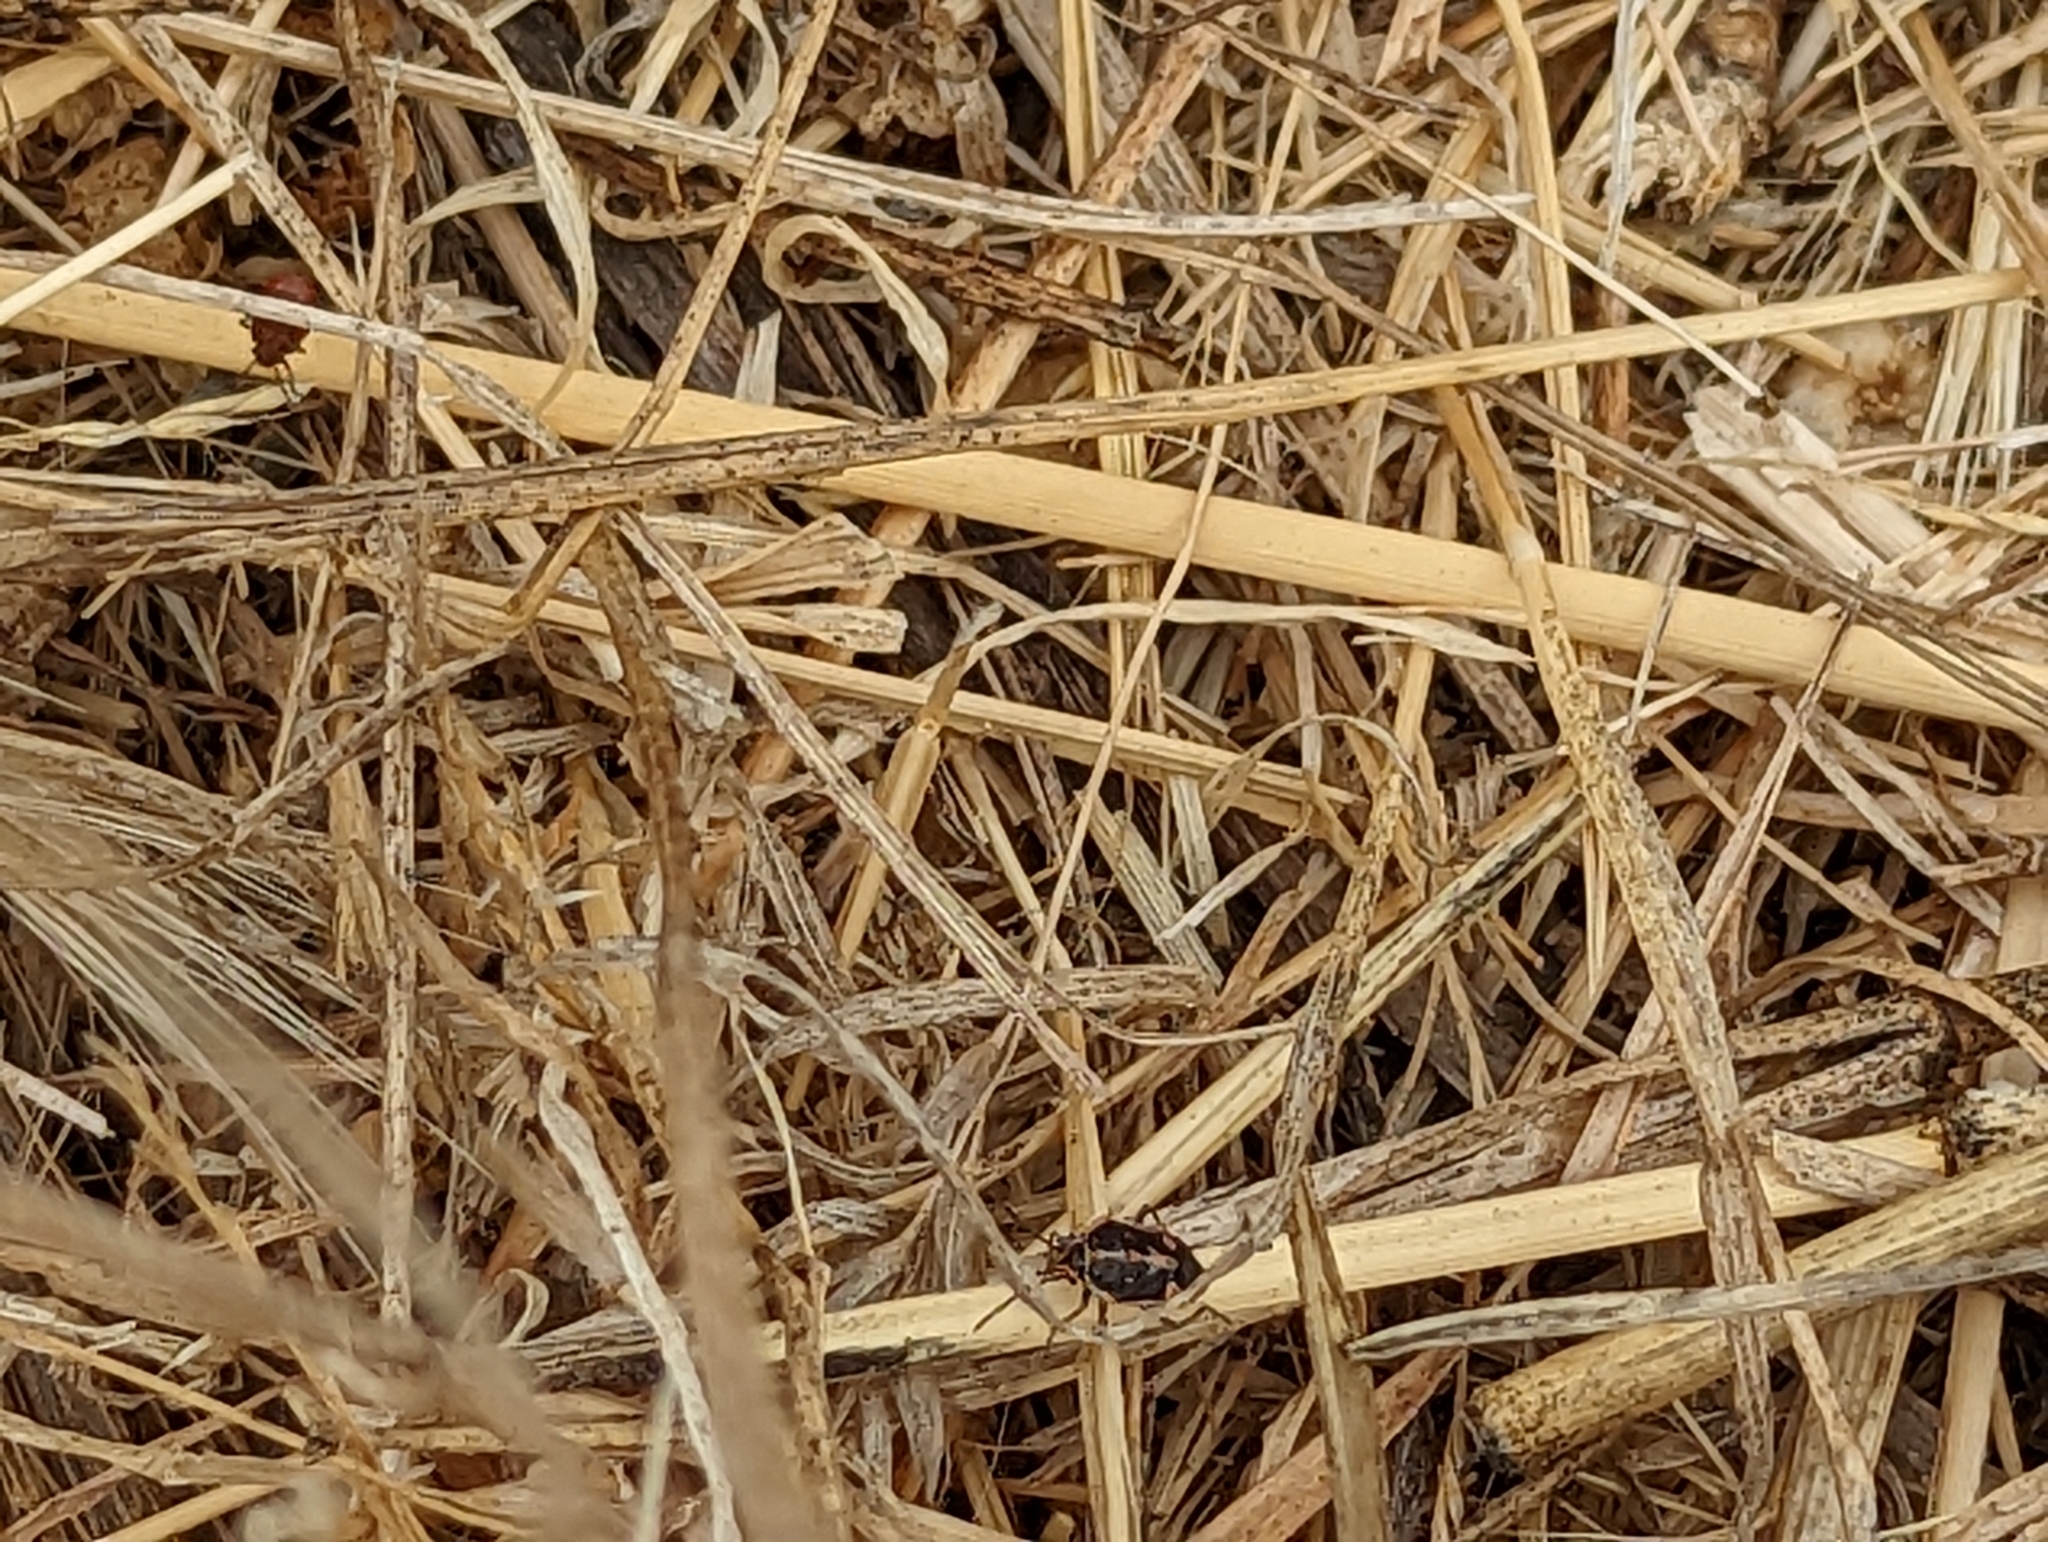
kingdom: Animalia
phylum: Arthropoda
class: Insecta
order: Hemiptera
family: Pentatomidae
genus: Bagrada
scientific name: Bagrada hilaris
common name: Bagrada bug
